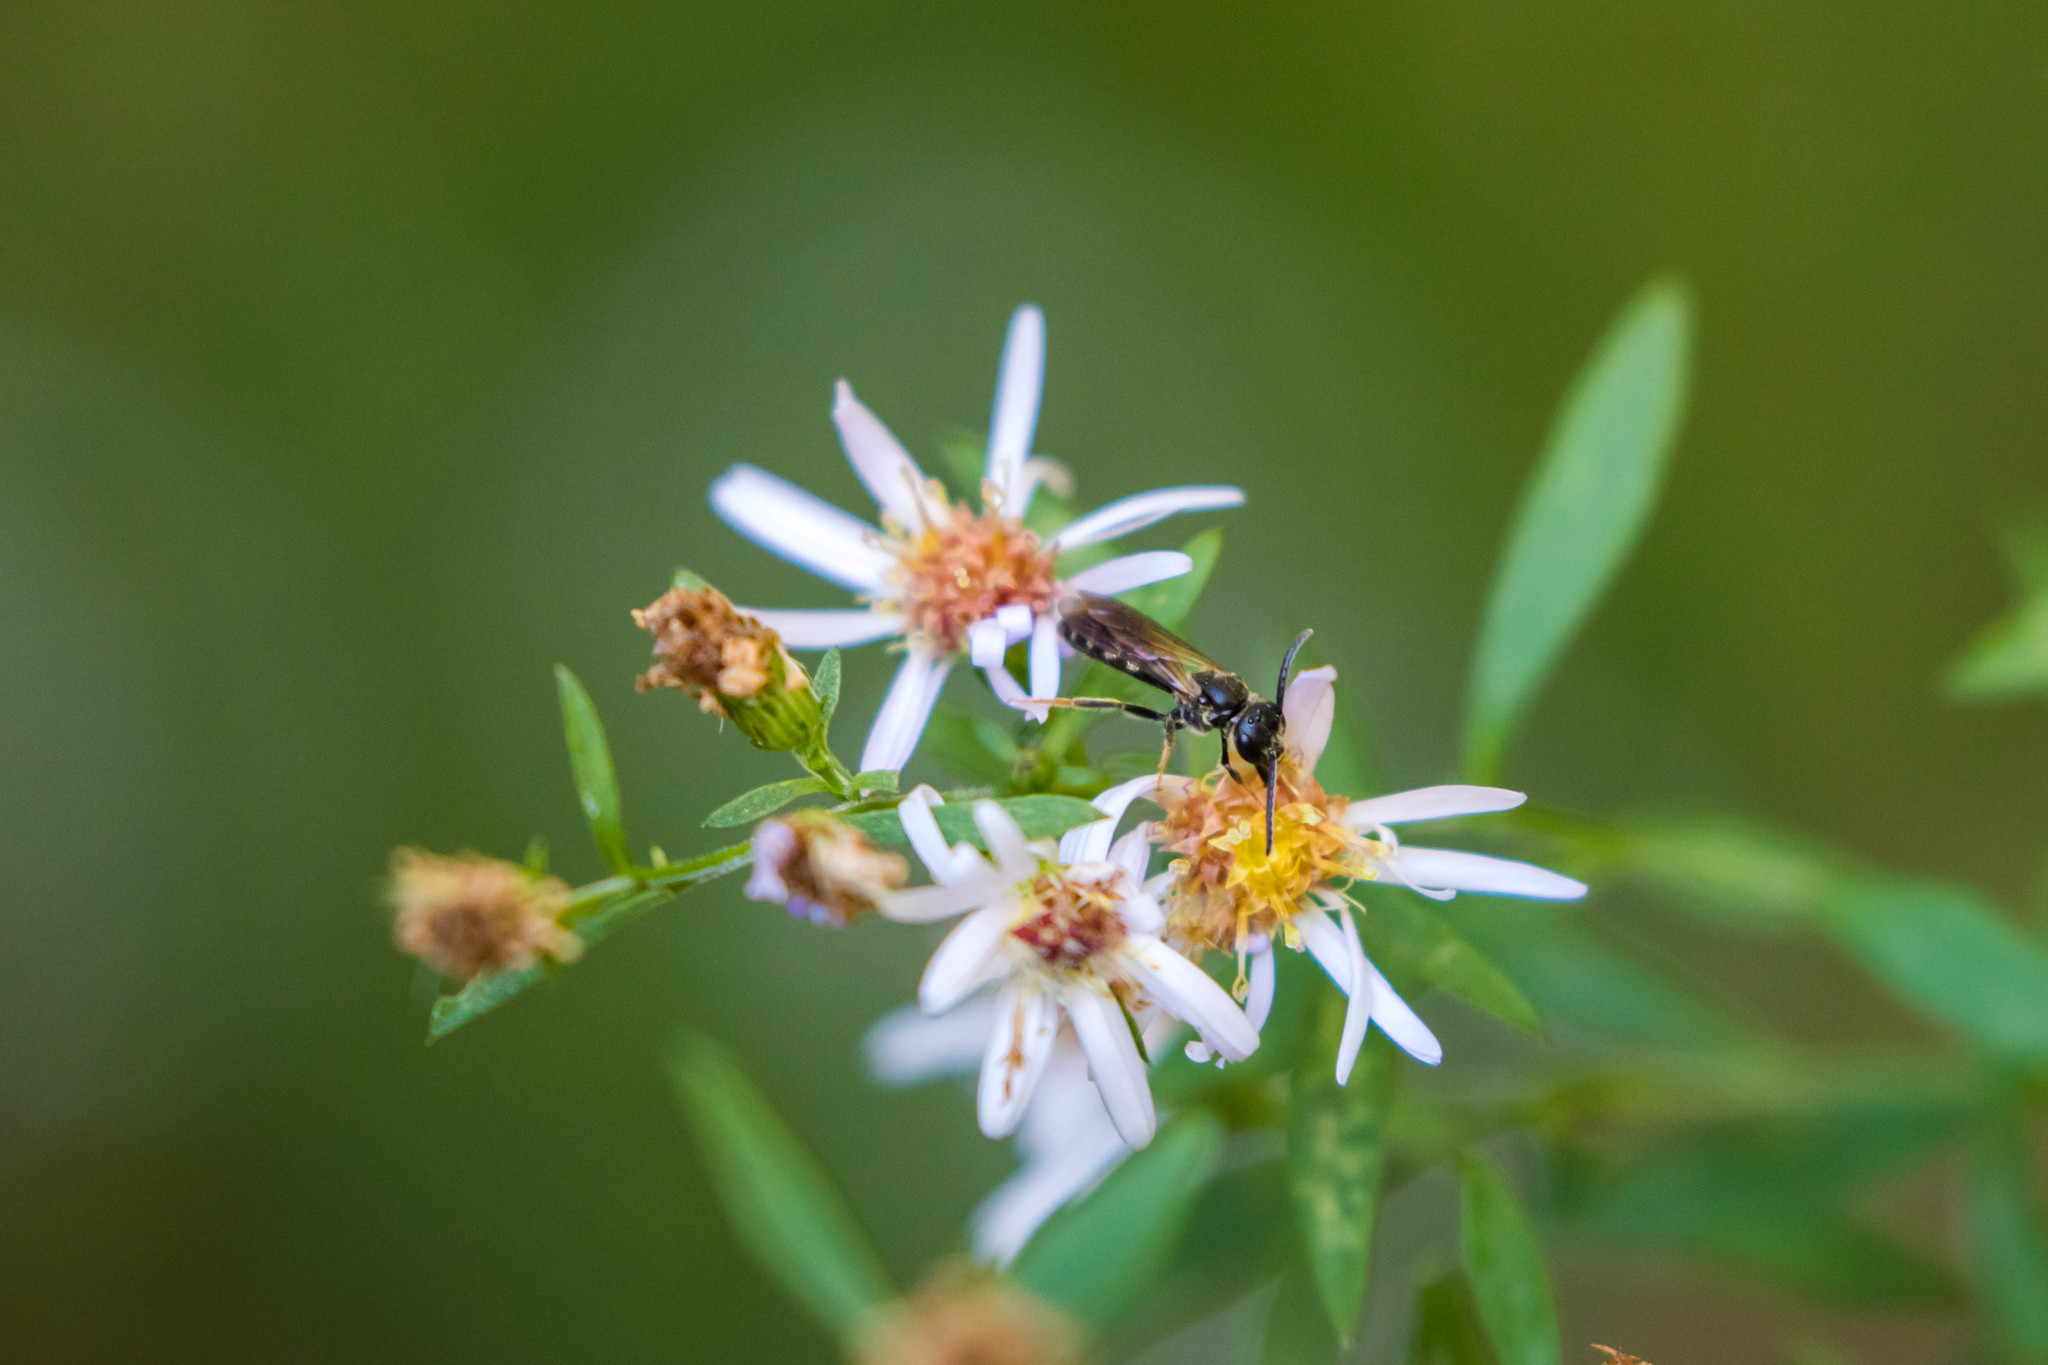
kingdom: Animalia
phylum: Arthropoda
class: Insecta
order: Hymenoptera
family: Halictidae
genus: Lasioglossum
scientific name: Lasioglossum fuscipenne
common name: Brown-winged sweat bee
